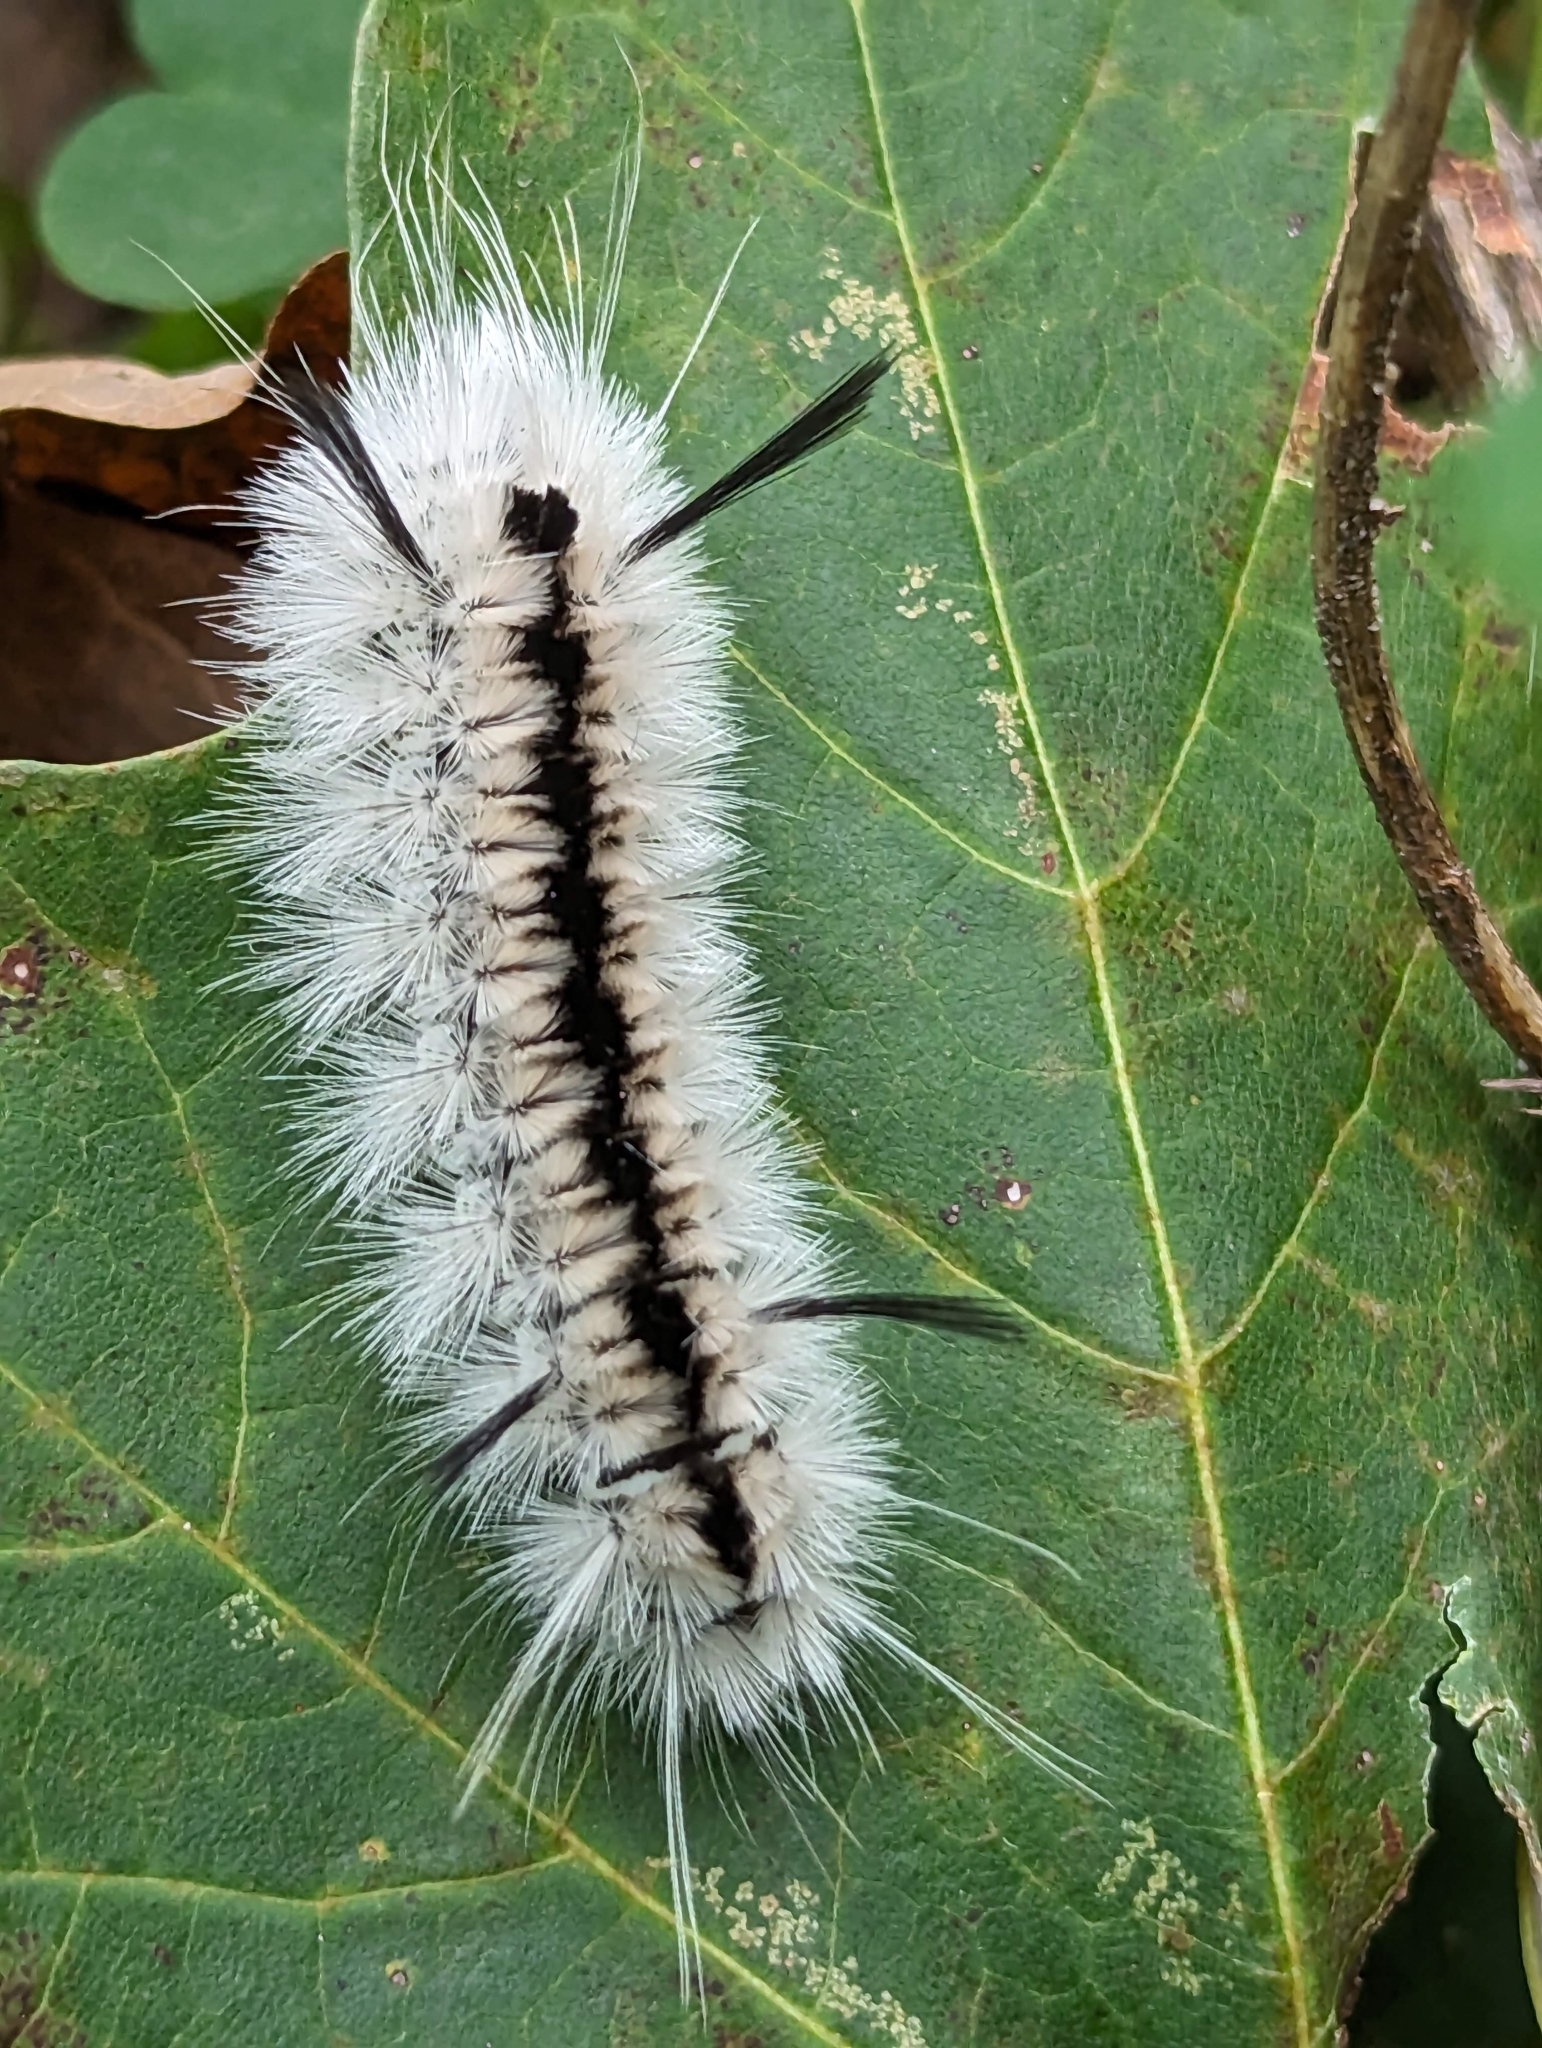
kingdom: Animalia
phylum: Arthropoda
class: Insecta
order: Lepidoptera
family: Erebidae
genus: Lophocampa
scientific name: Lophocampa caryae
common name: Hickory tussock moth
